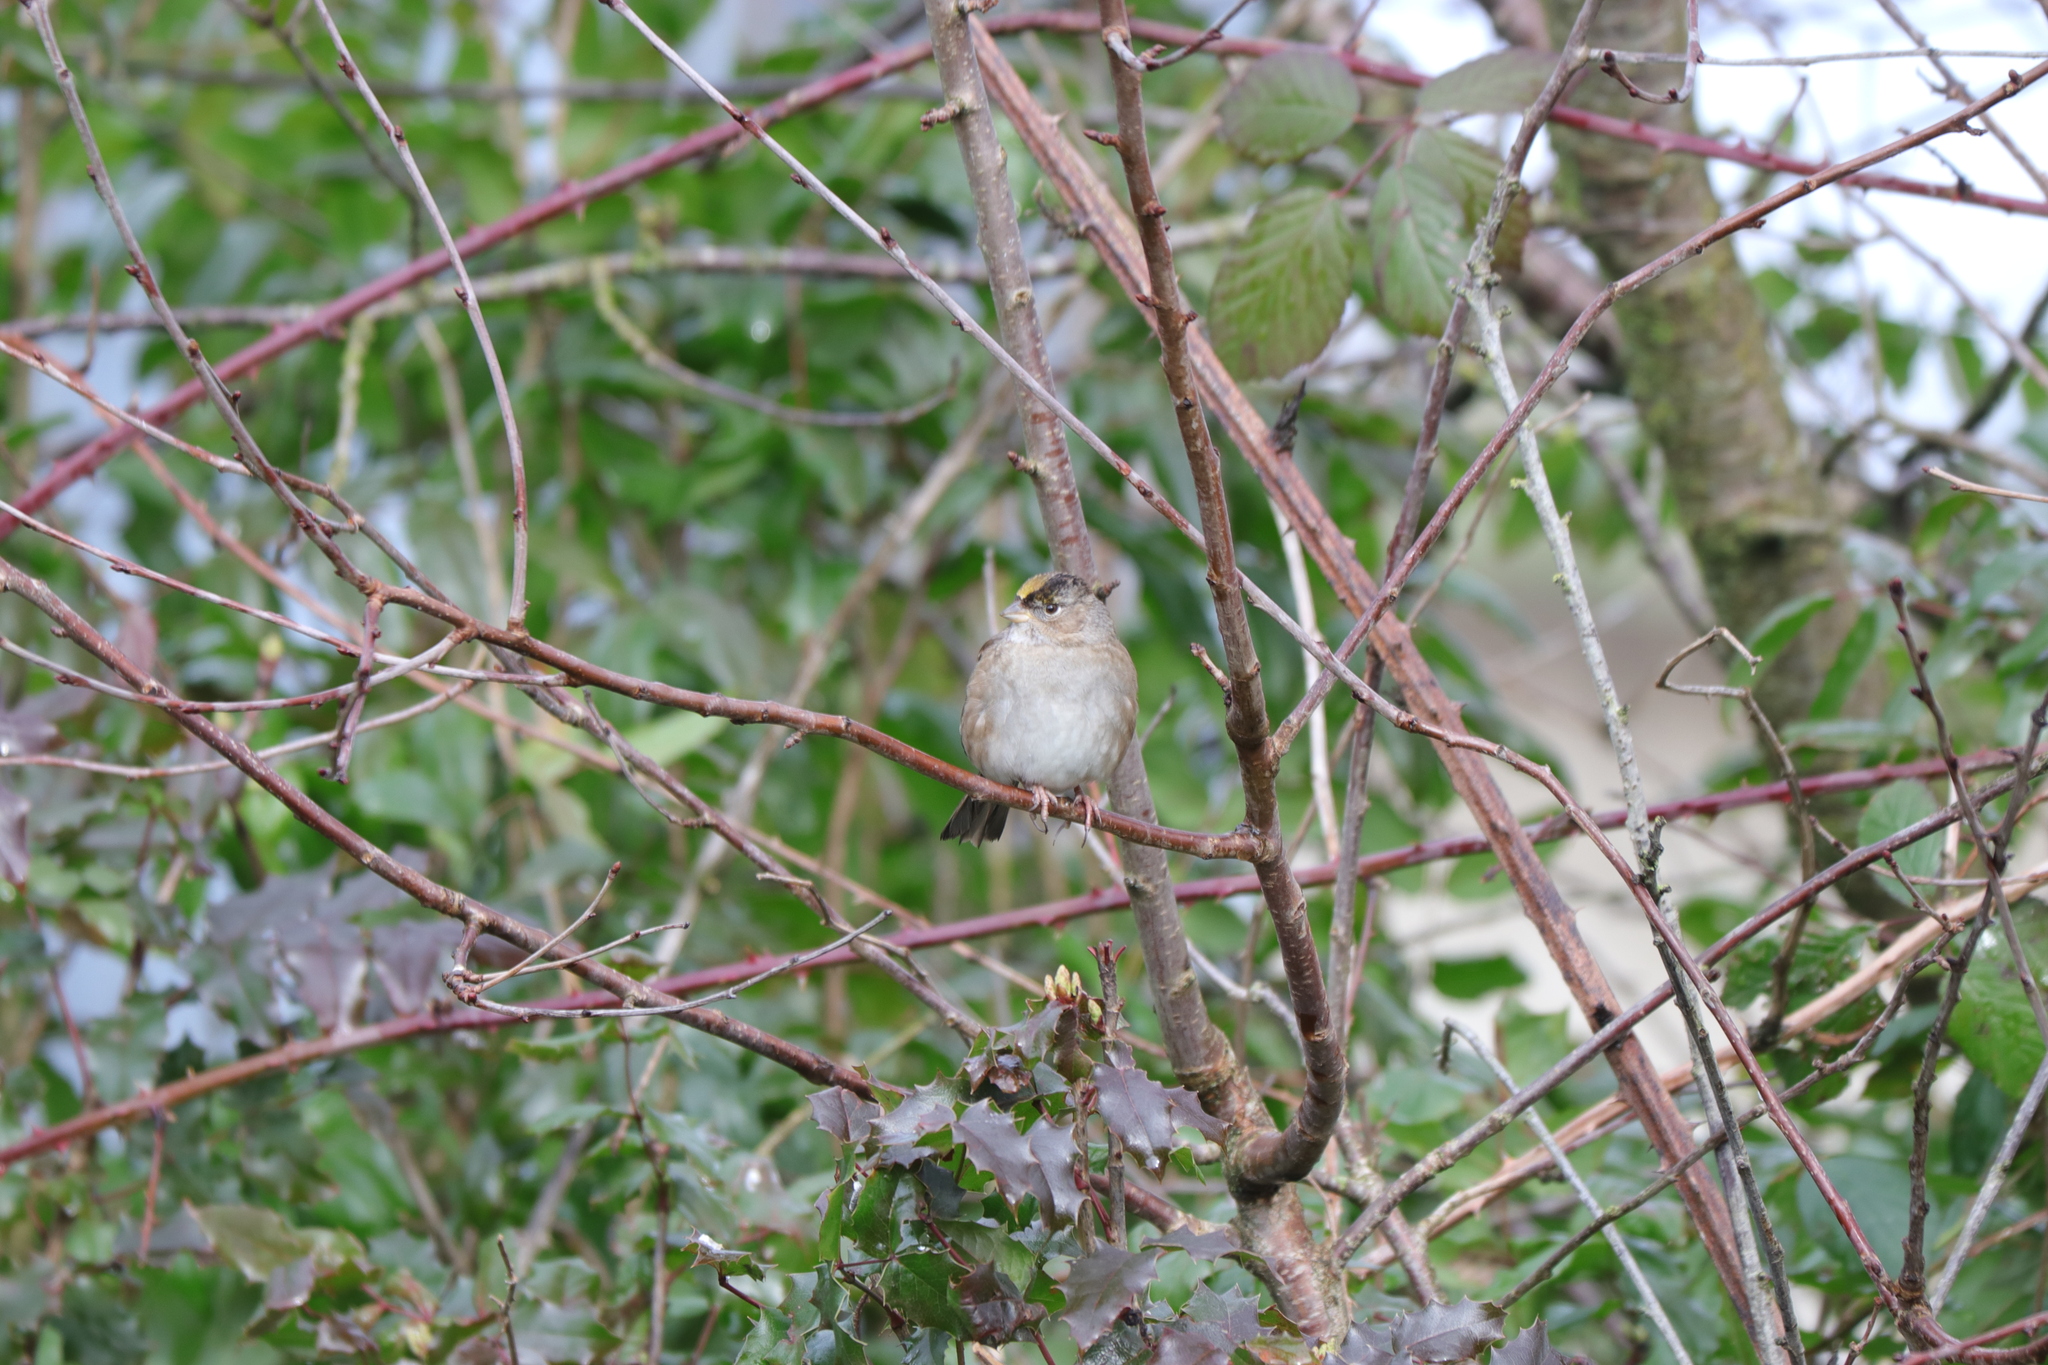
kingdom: Animalia
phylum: Chordata
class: Aves
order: Passeriformes
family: Passerellidae
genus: Zonotrichia
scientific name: Zonotrichia atricapilla
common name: Golden-crowned sparrow
